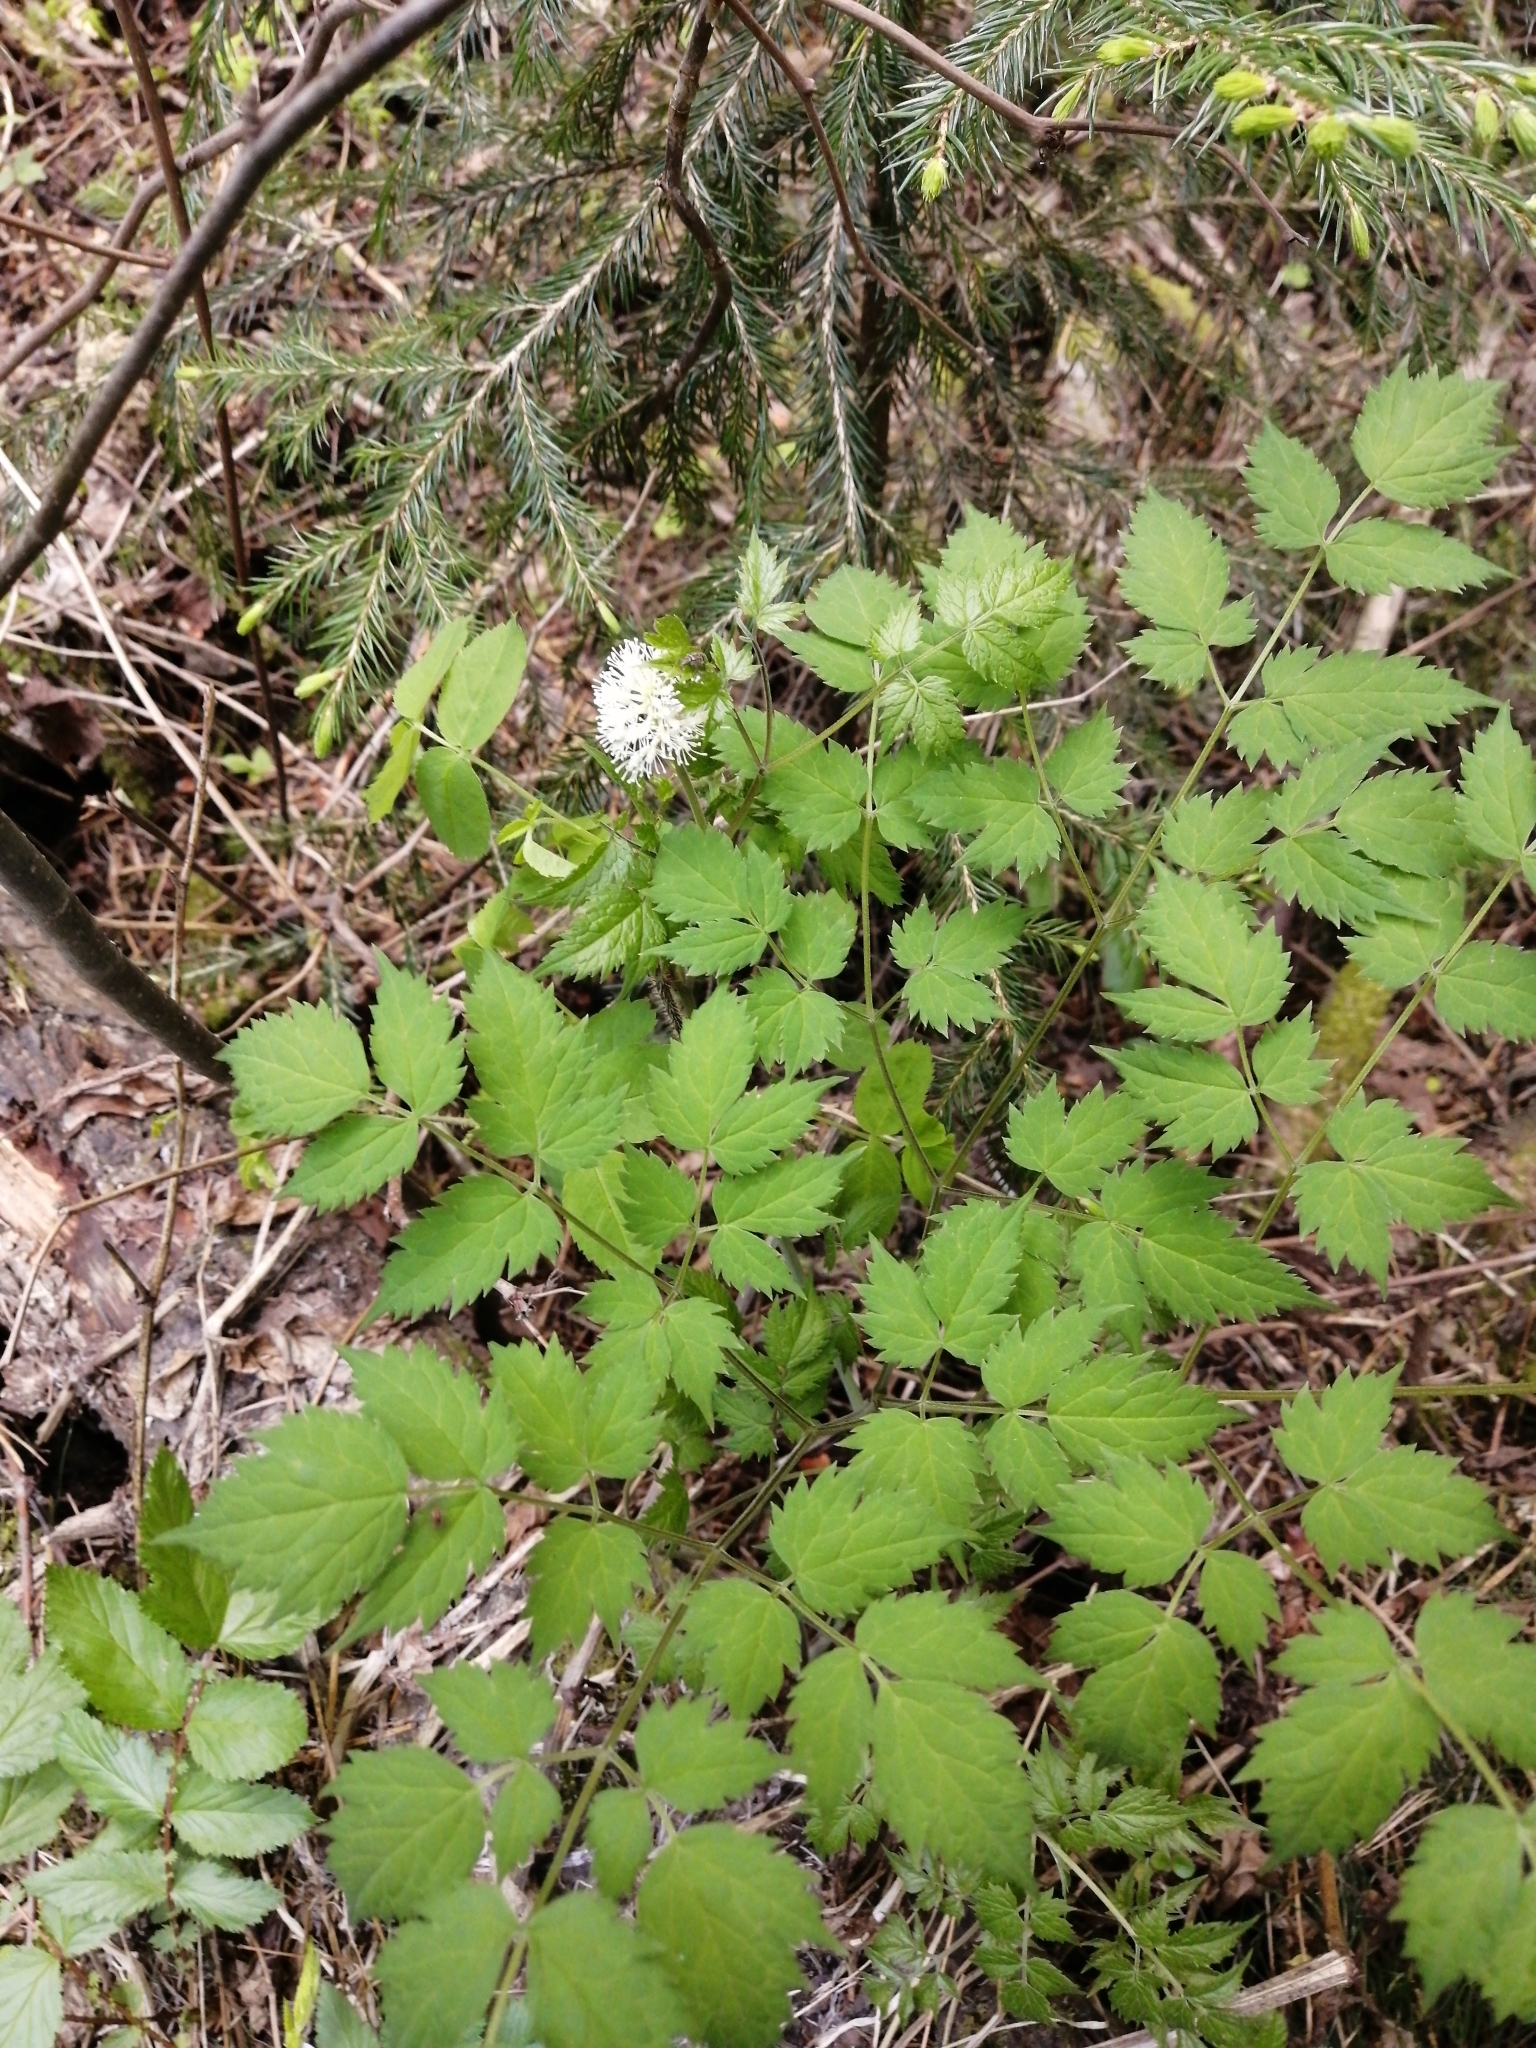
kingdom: Plantae
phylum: Tracheophyta
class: Magnoliopsida
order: Ranunculales
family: Ranunculaceae
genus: Actaea
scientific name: Actaea erythrocarpa
